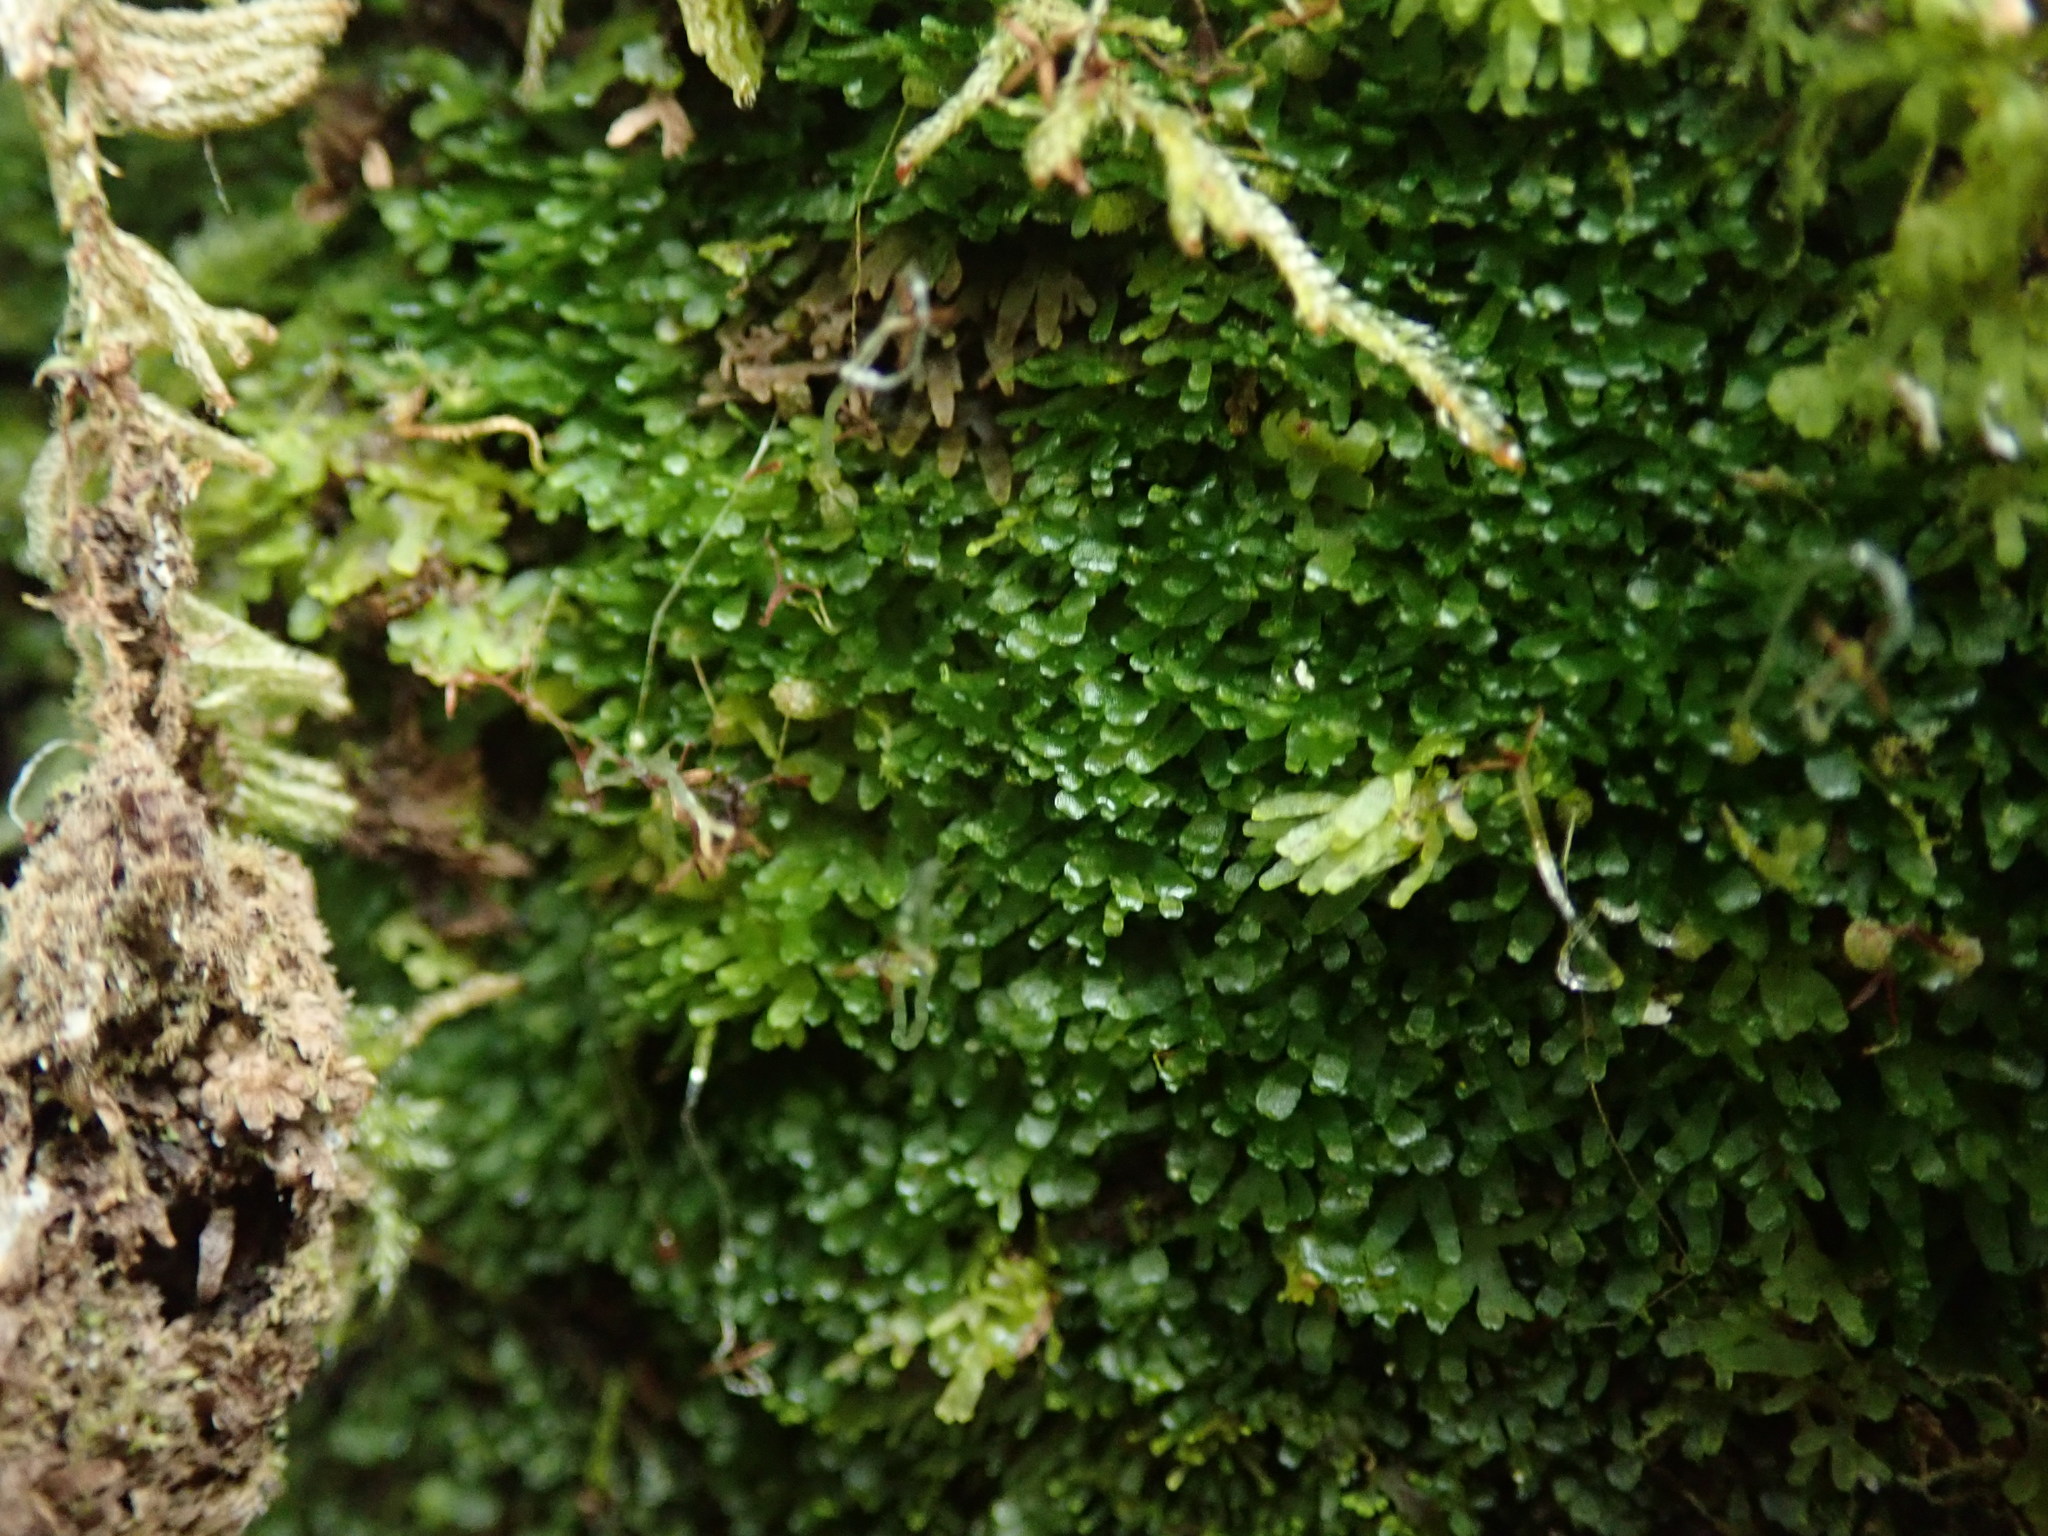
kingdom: Plantae
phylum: Marchantiophyta
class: Jungermanniopsida
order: Metzgeriales
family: Aneuraceae
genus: Riccardia
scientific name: Riccardia latifrons
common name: Bog germanderwort
